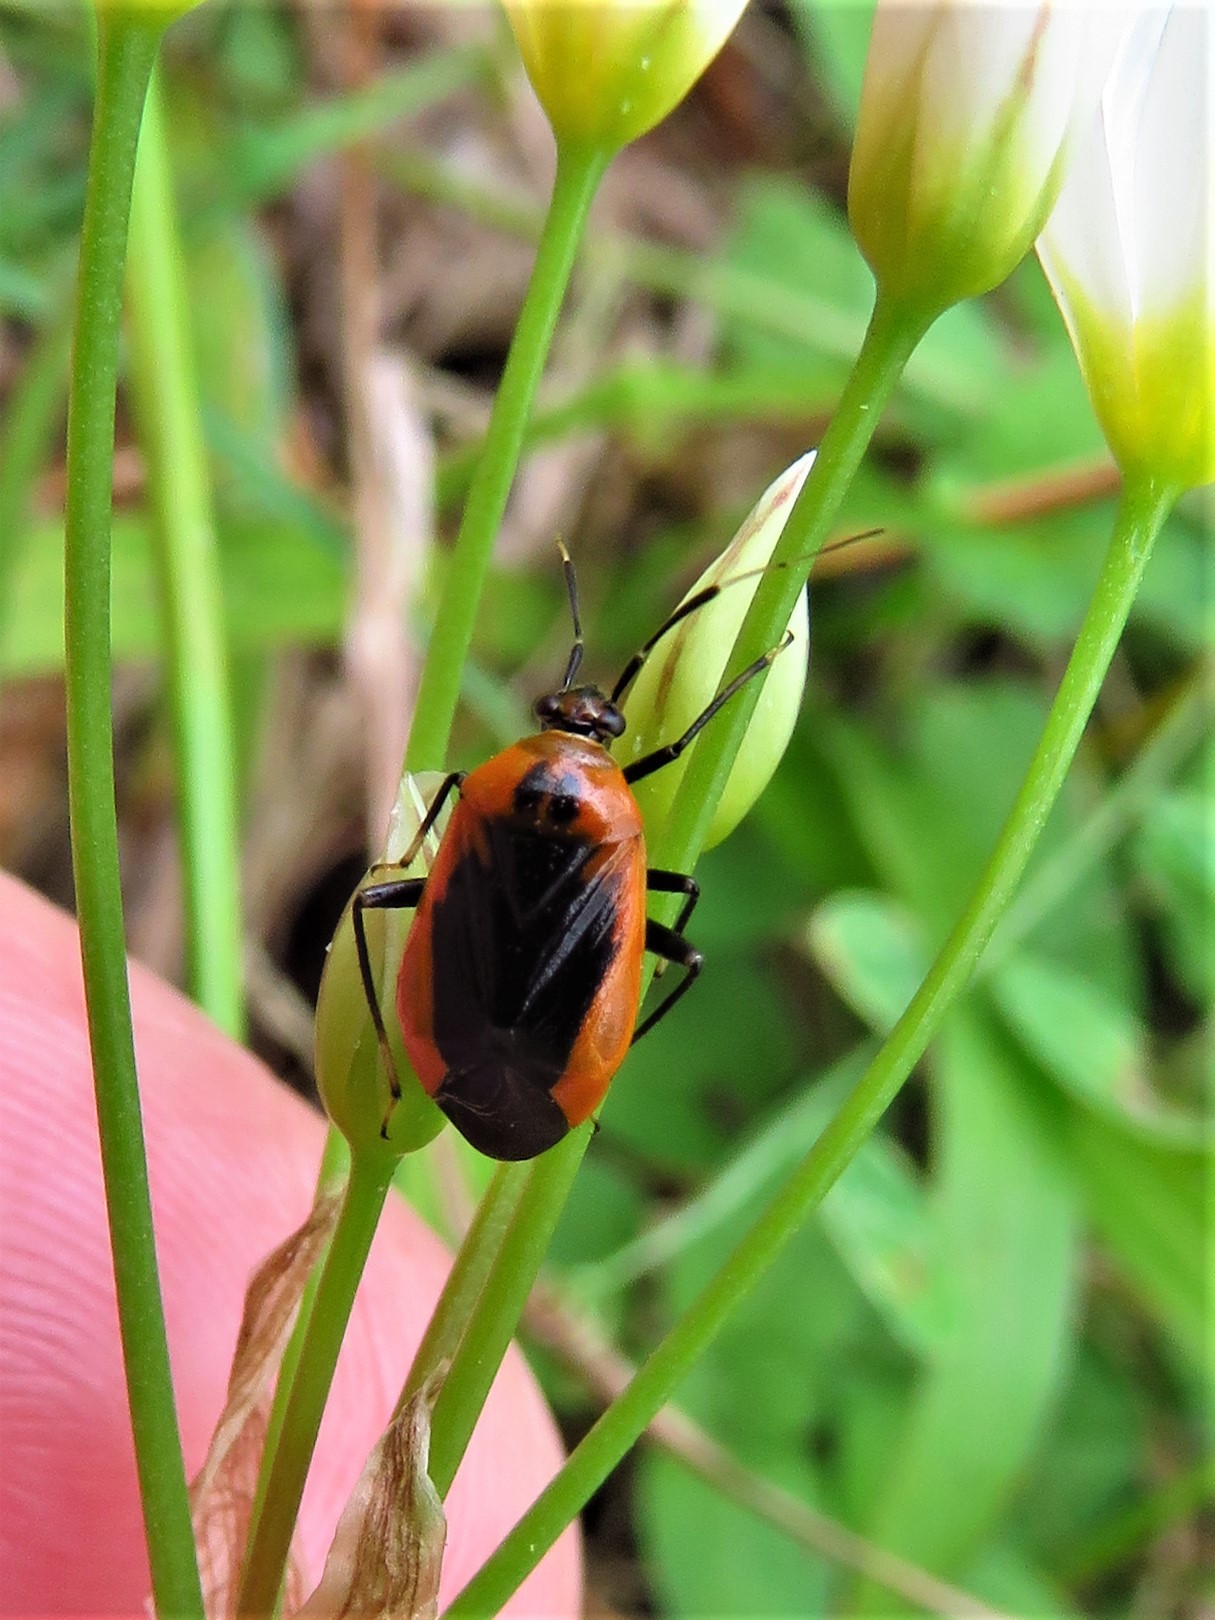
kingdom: Animalia
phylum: Arthropoda
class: Insecta
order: Hemiptera
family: Miridae
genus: Metriorrhynchomiris
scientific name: Metriorrhynchomiris dislocatus
